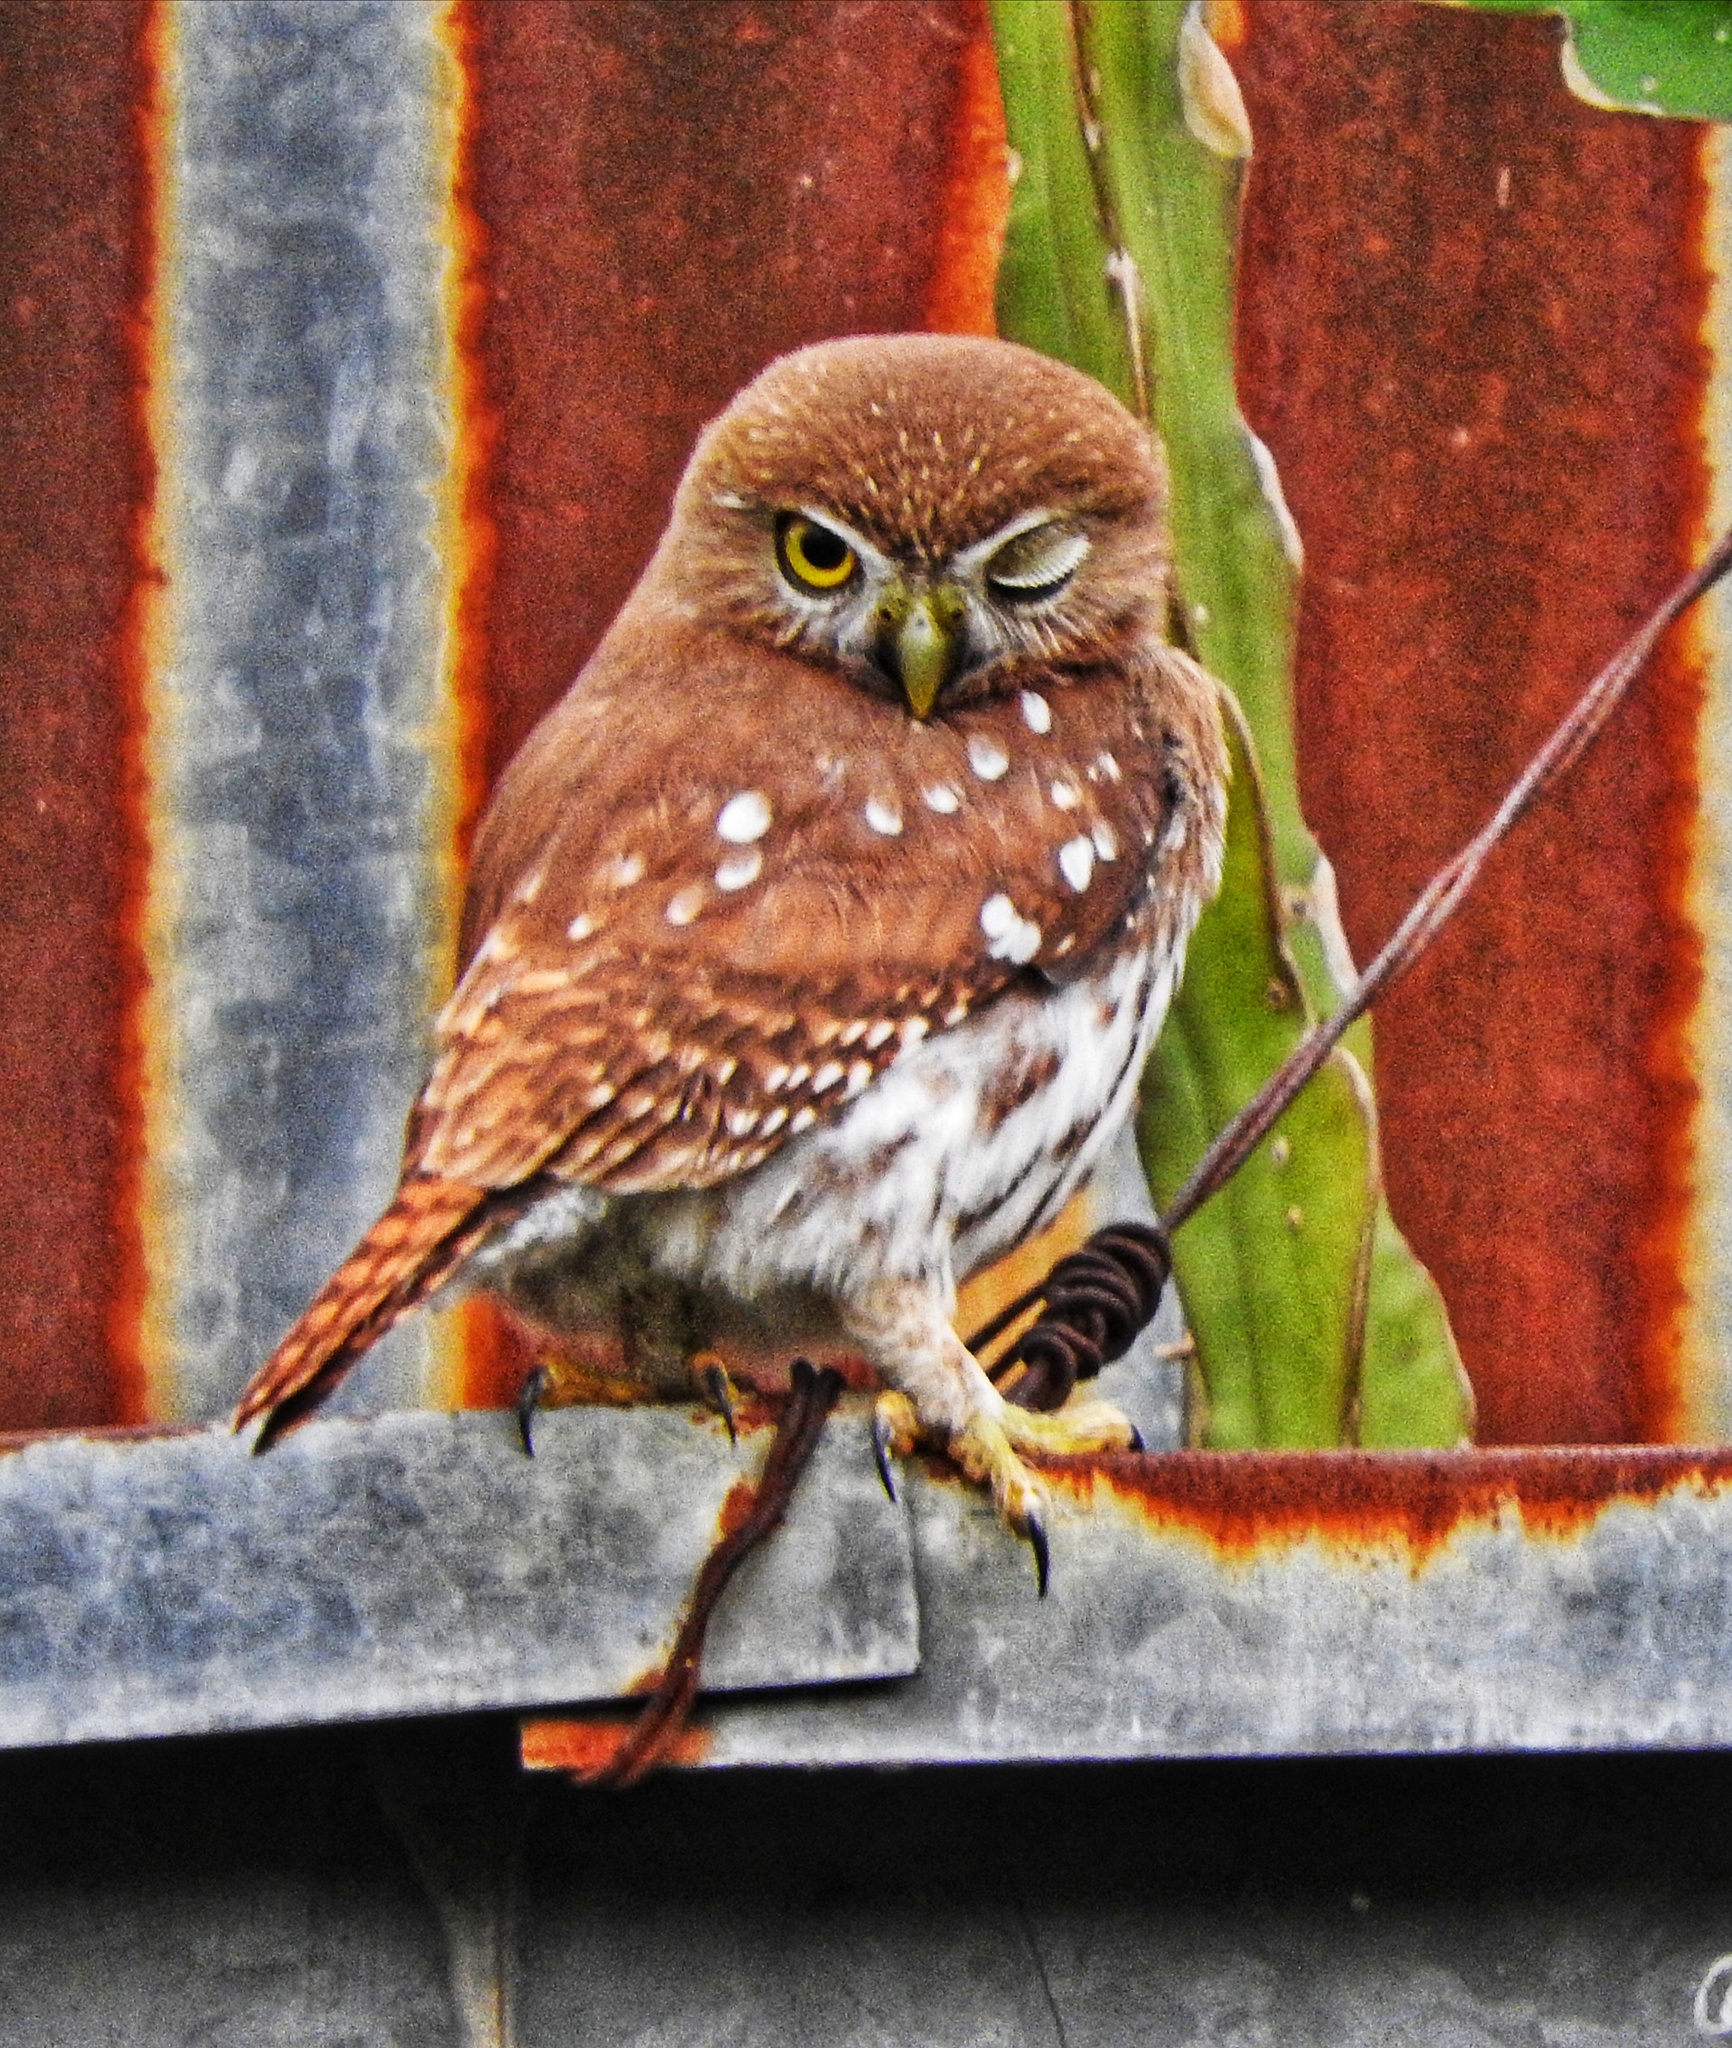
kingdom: Animalia
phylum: Chordata
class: Aves
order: Strigiformes
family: Strigidae
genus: Glaucidium
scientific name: Glaucidium brasilianum
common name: Ferruginous pygmy-owl
